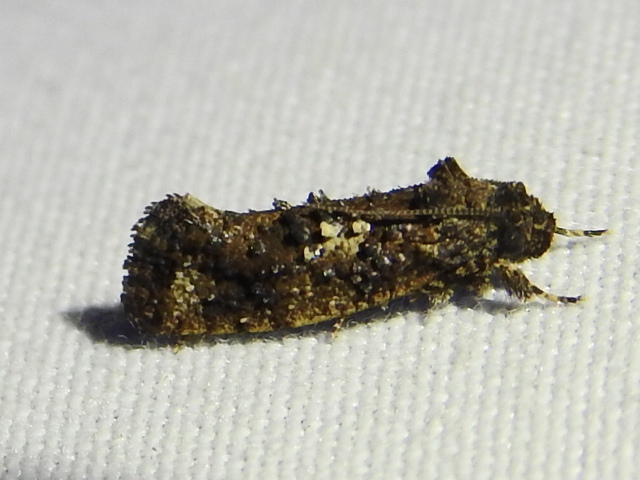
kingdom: Animalia
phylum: Arthropoda
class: Insecta
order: Lepidoptera
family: Tineidae
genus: Acrolophus
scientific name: Acrolophus cressoni
